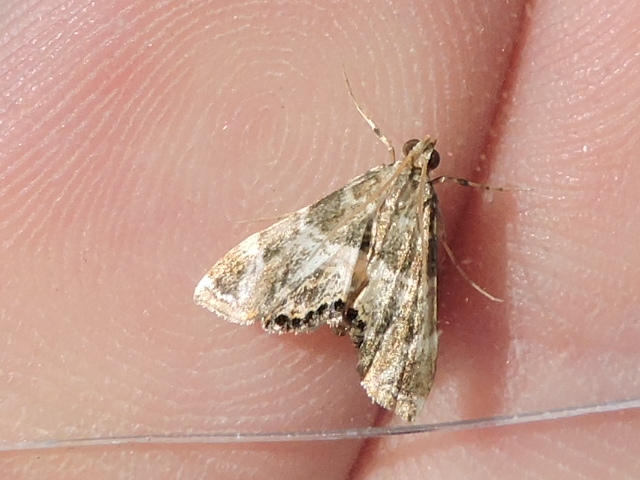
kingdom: Animalia
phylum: Arthropoda
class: Insecta
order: Lepidoptera
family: Crambidae
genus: Usingeriessa
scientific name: Usingeriessa onyxalis
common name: Moth
